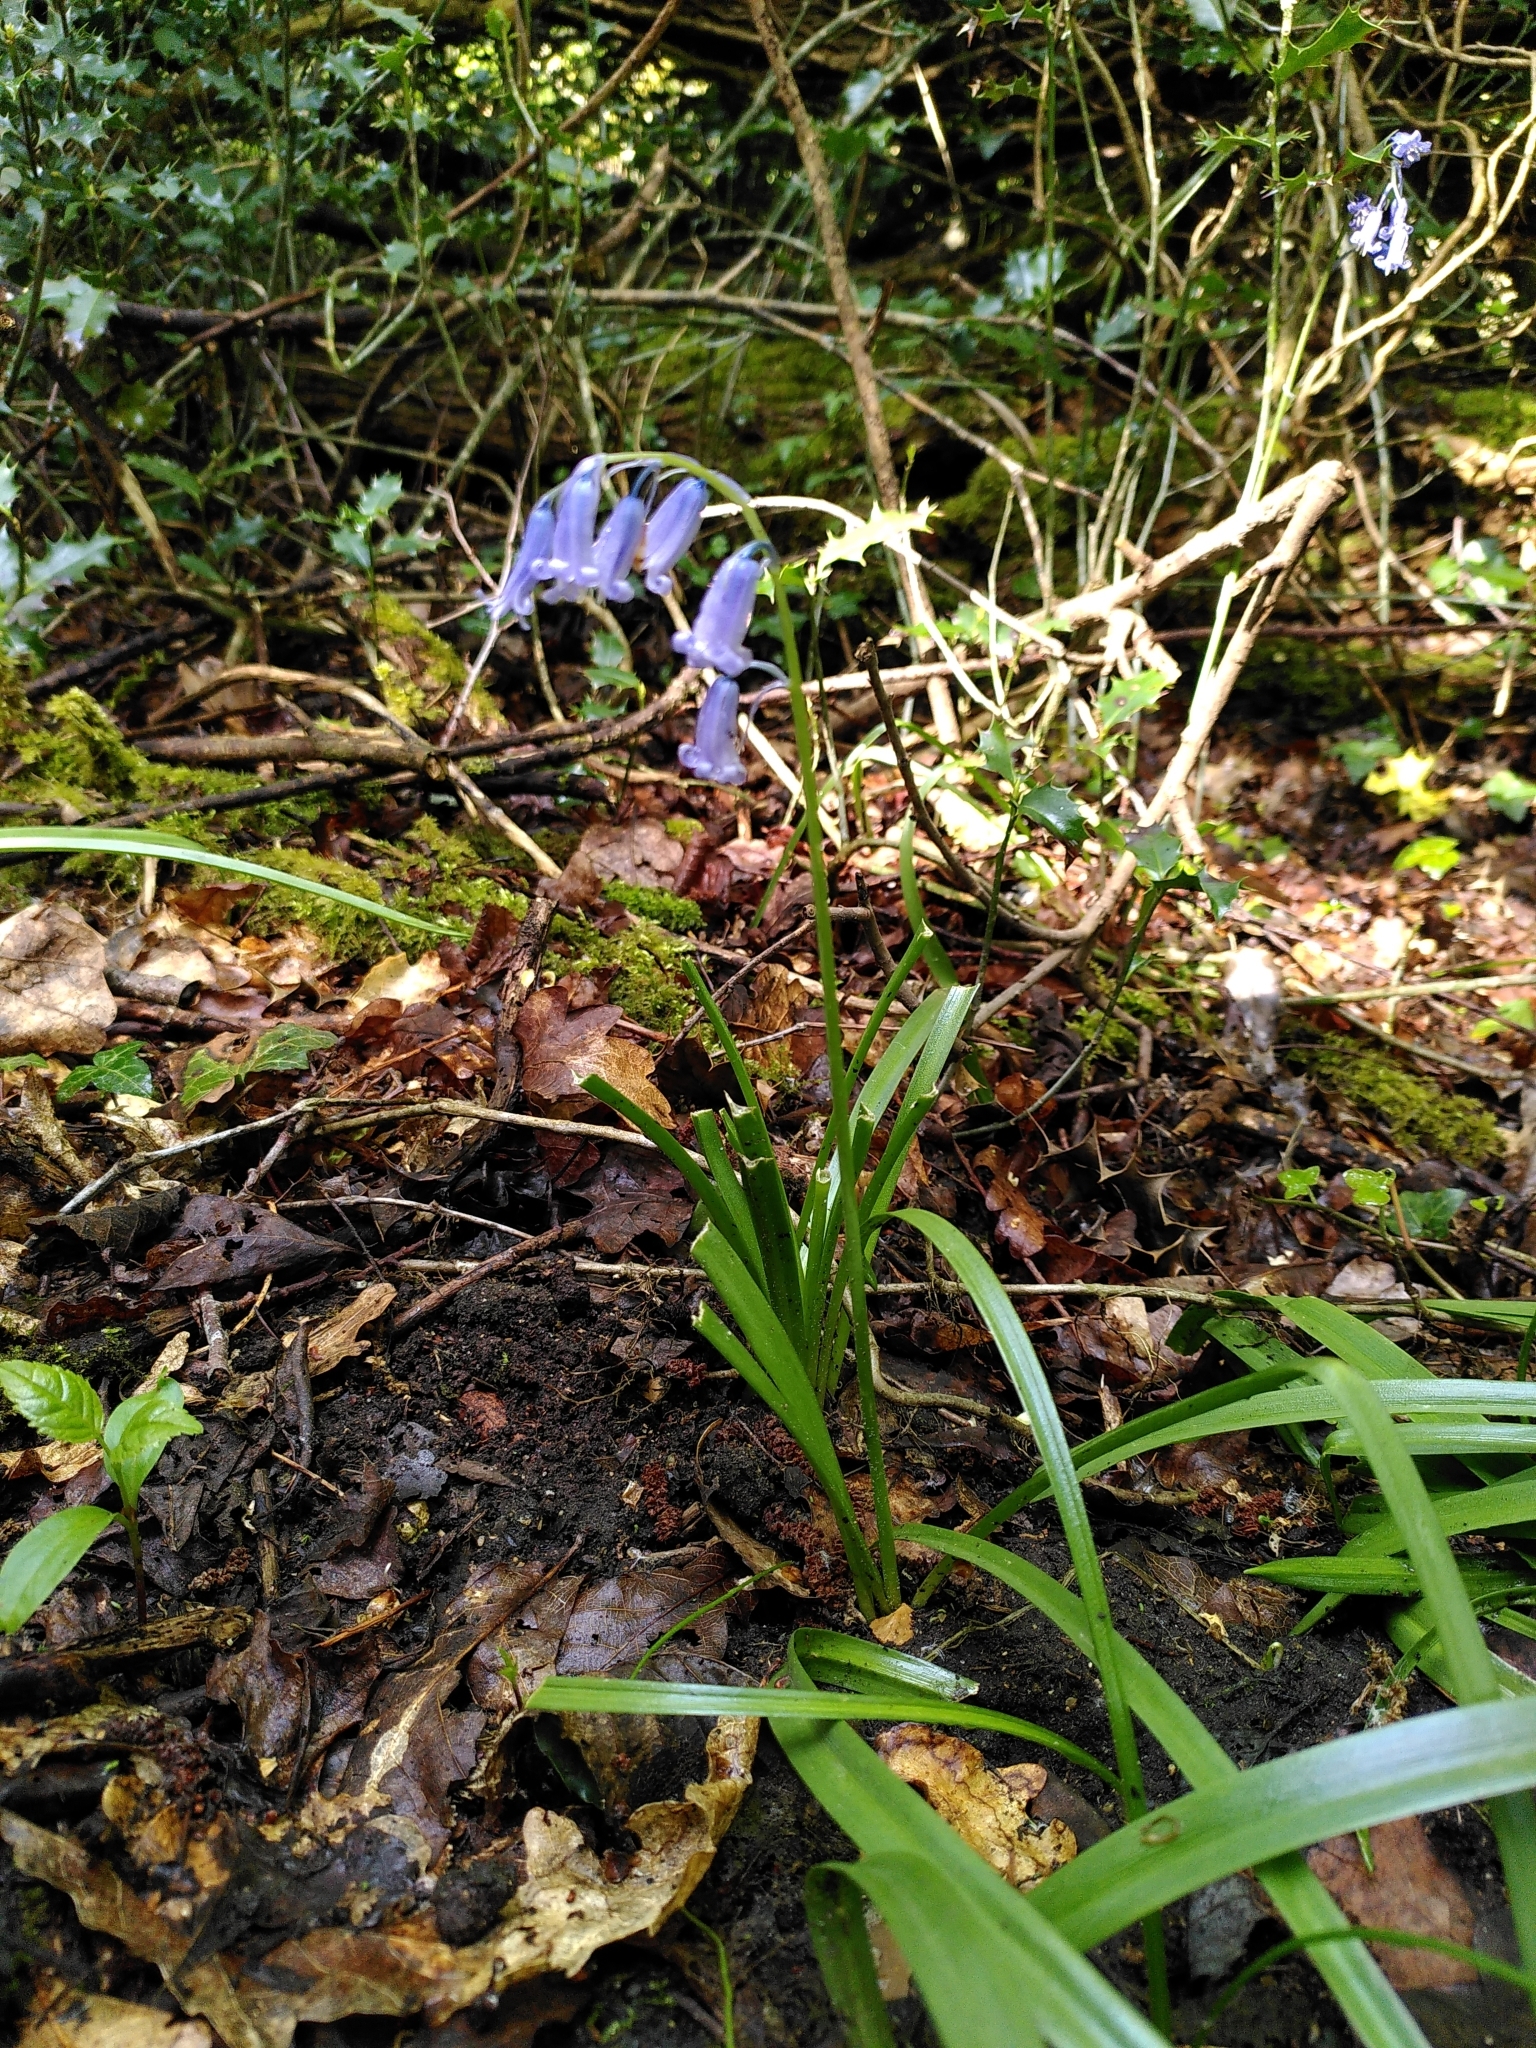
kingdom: Plantae
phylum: Tracheophyta
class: Liliopsida
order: Asparagales
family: Asparagaceae
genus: Hyacinthoides
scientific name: Hyacinthoides non-scripta
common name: Bluebell
